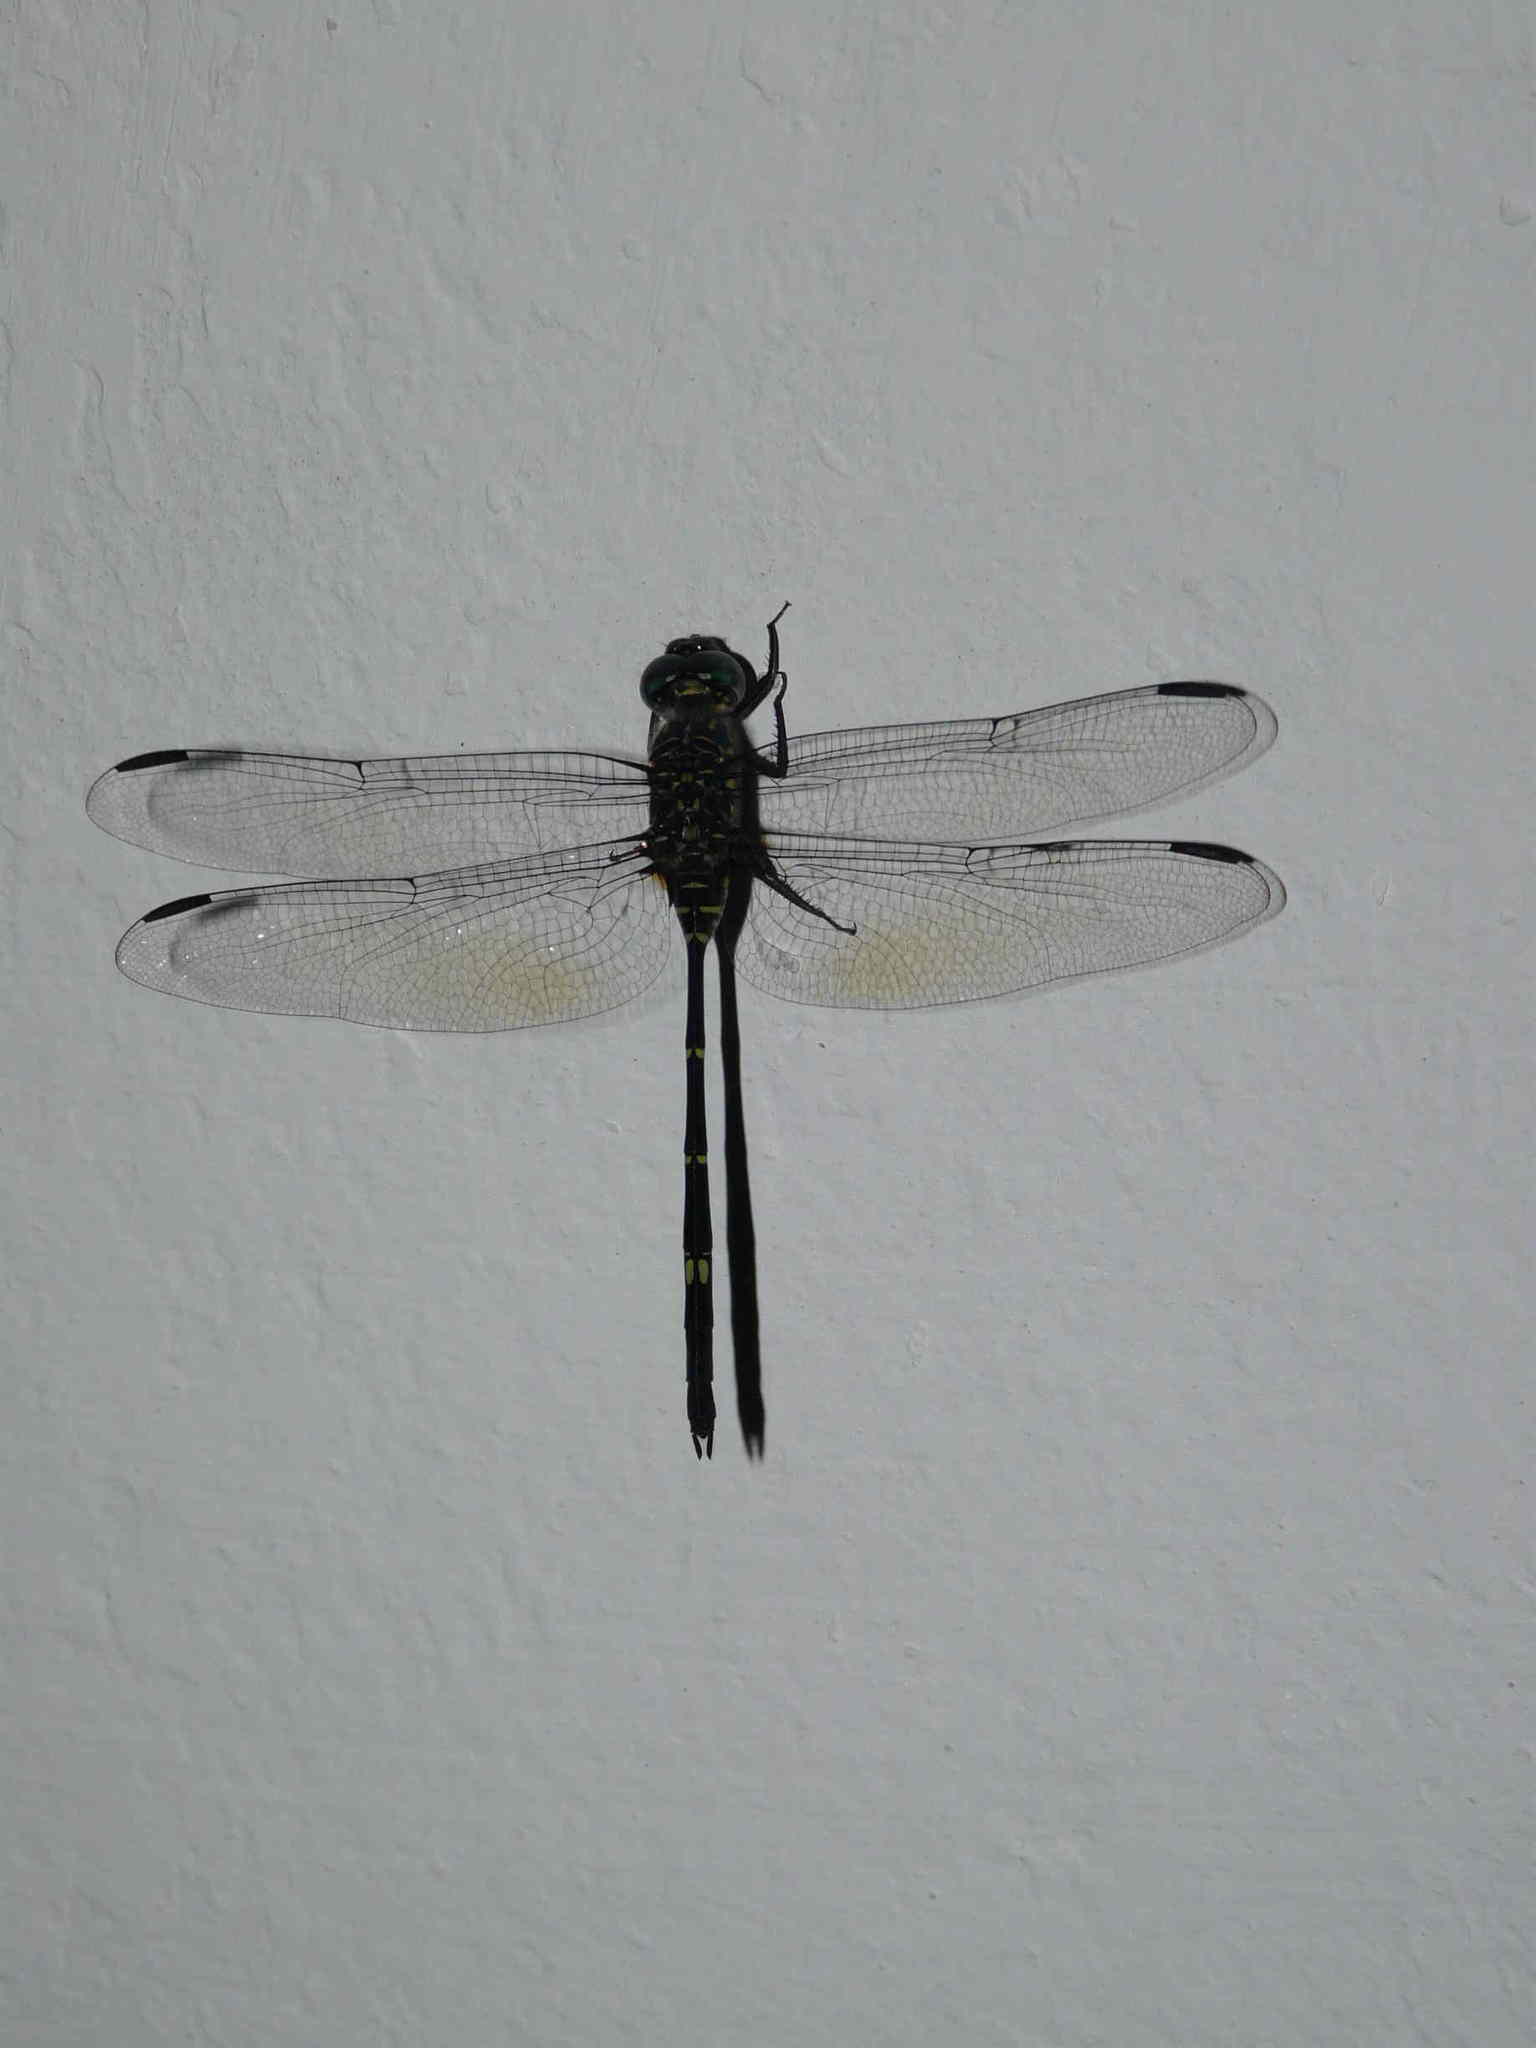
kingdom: Animalia
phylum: Arthropoda
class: Insecta
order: Odonata
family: Libellulidae
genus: Olpogastra
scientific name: Olpogastra lugubris
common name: Bottletail
